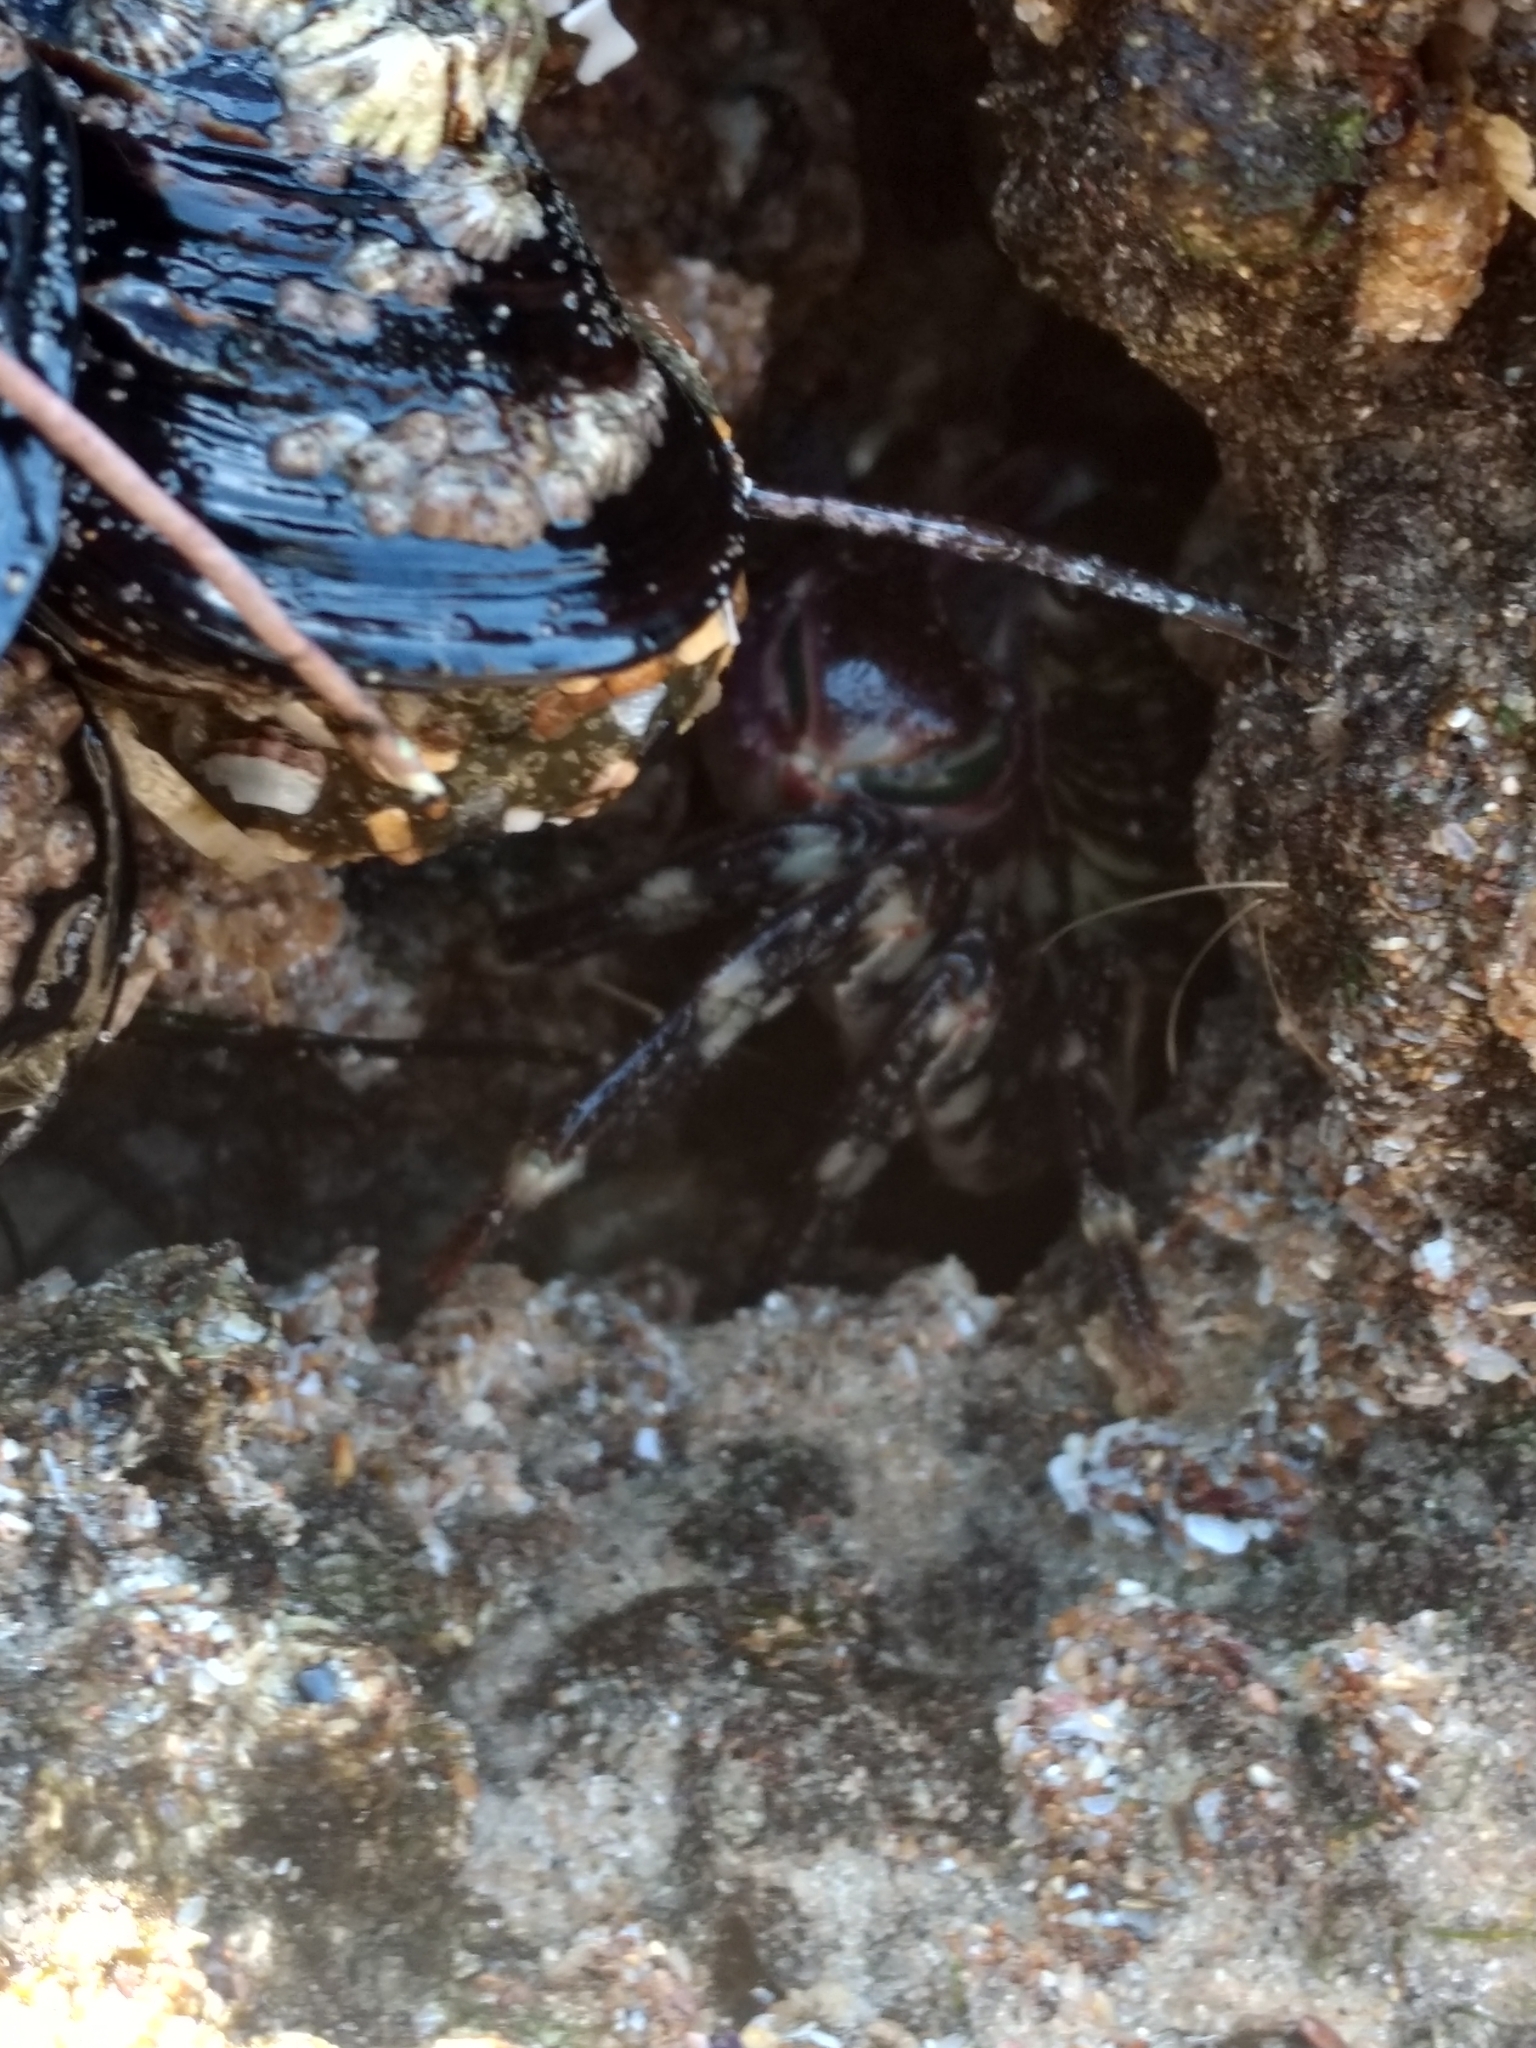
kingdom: Animalia
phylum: Arthropoda
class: Malacostraca
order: Decapoda
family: Grapsidae
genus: Pachygrapsus
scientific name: Pachygrapsus crassipes
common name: Striped shore crab
